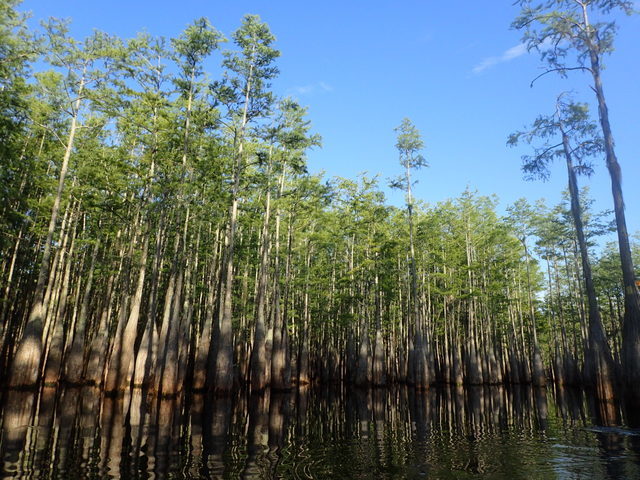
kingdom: Plantae
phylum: Tracheophyta
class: Pinopsida
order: Pinales
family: Cupressaceae
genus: Taxodium
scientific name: Taxodium distichum
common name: Bald cypress
